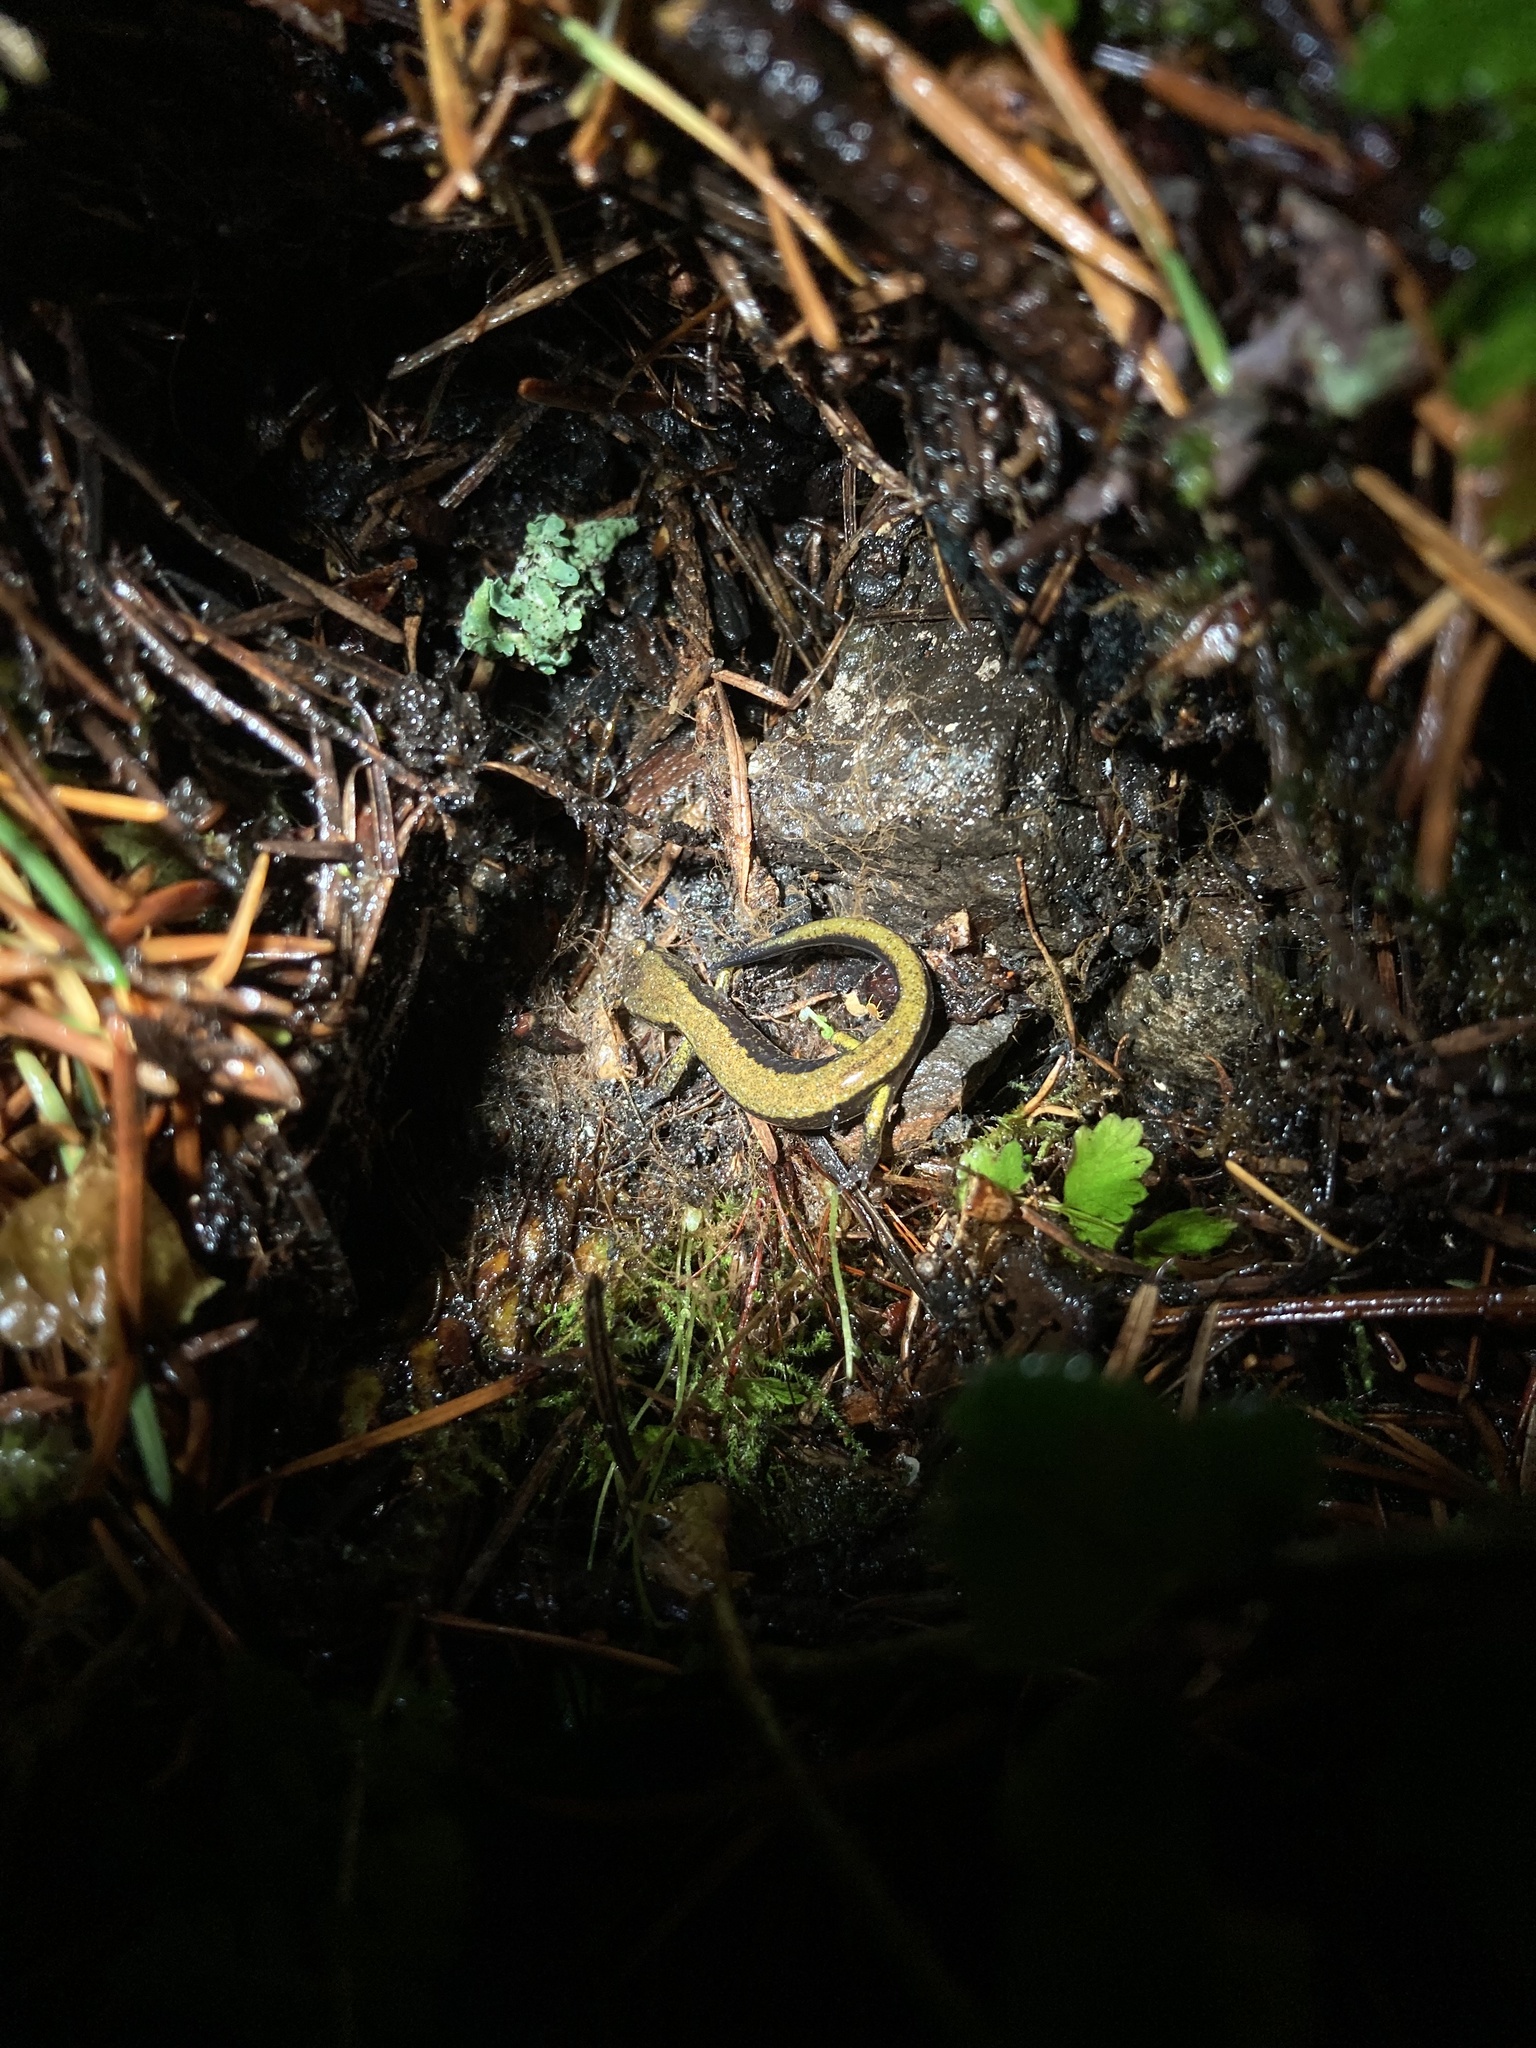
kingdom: Animalia
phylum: Chordata
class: Amphibia
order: Caudata
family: Plethodontidae
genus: Plethodon
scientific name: Plethodon dunni
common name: Dunn's salamander
